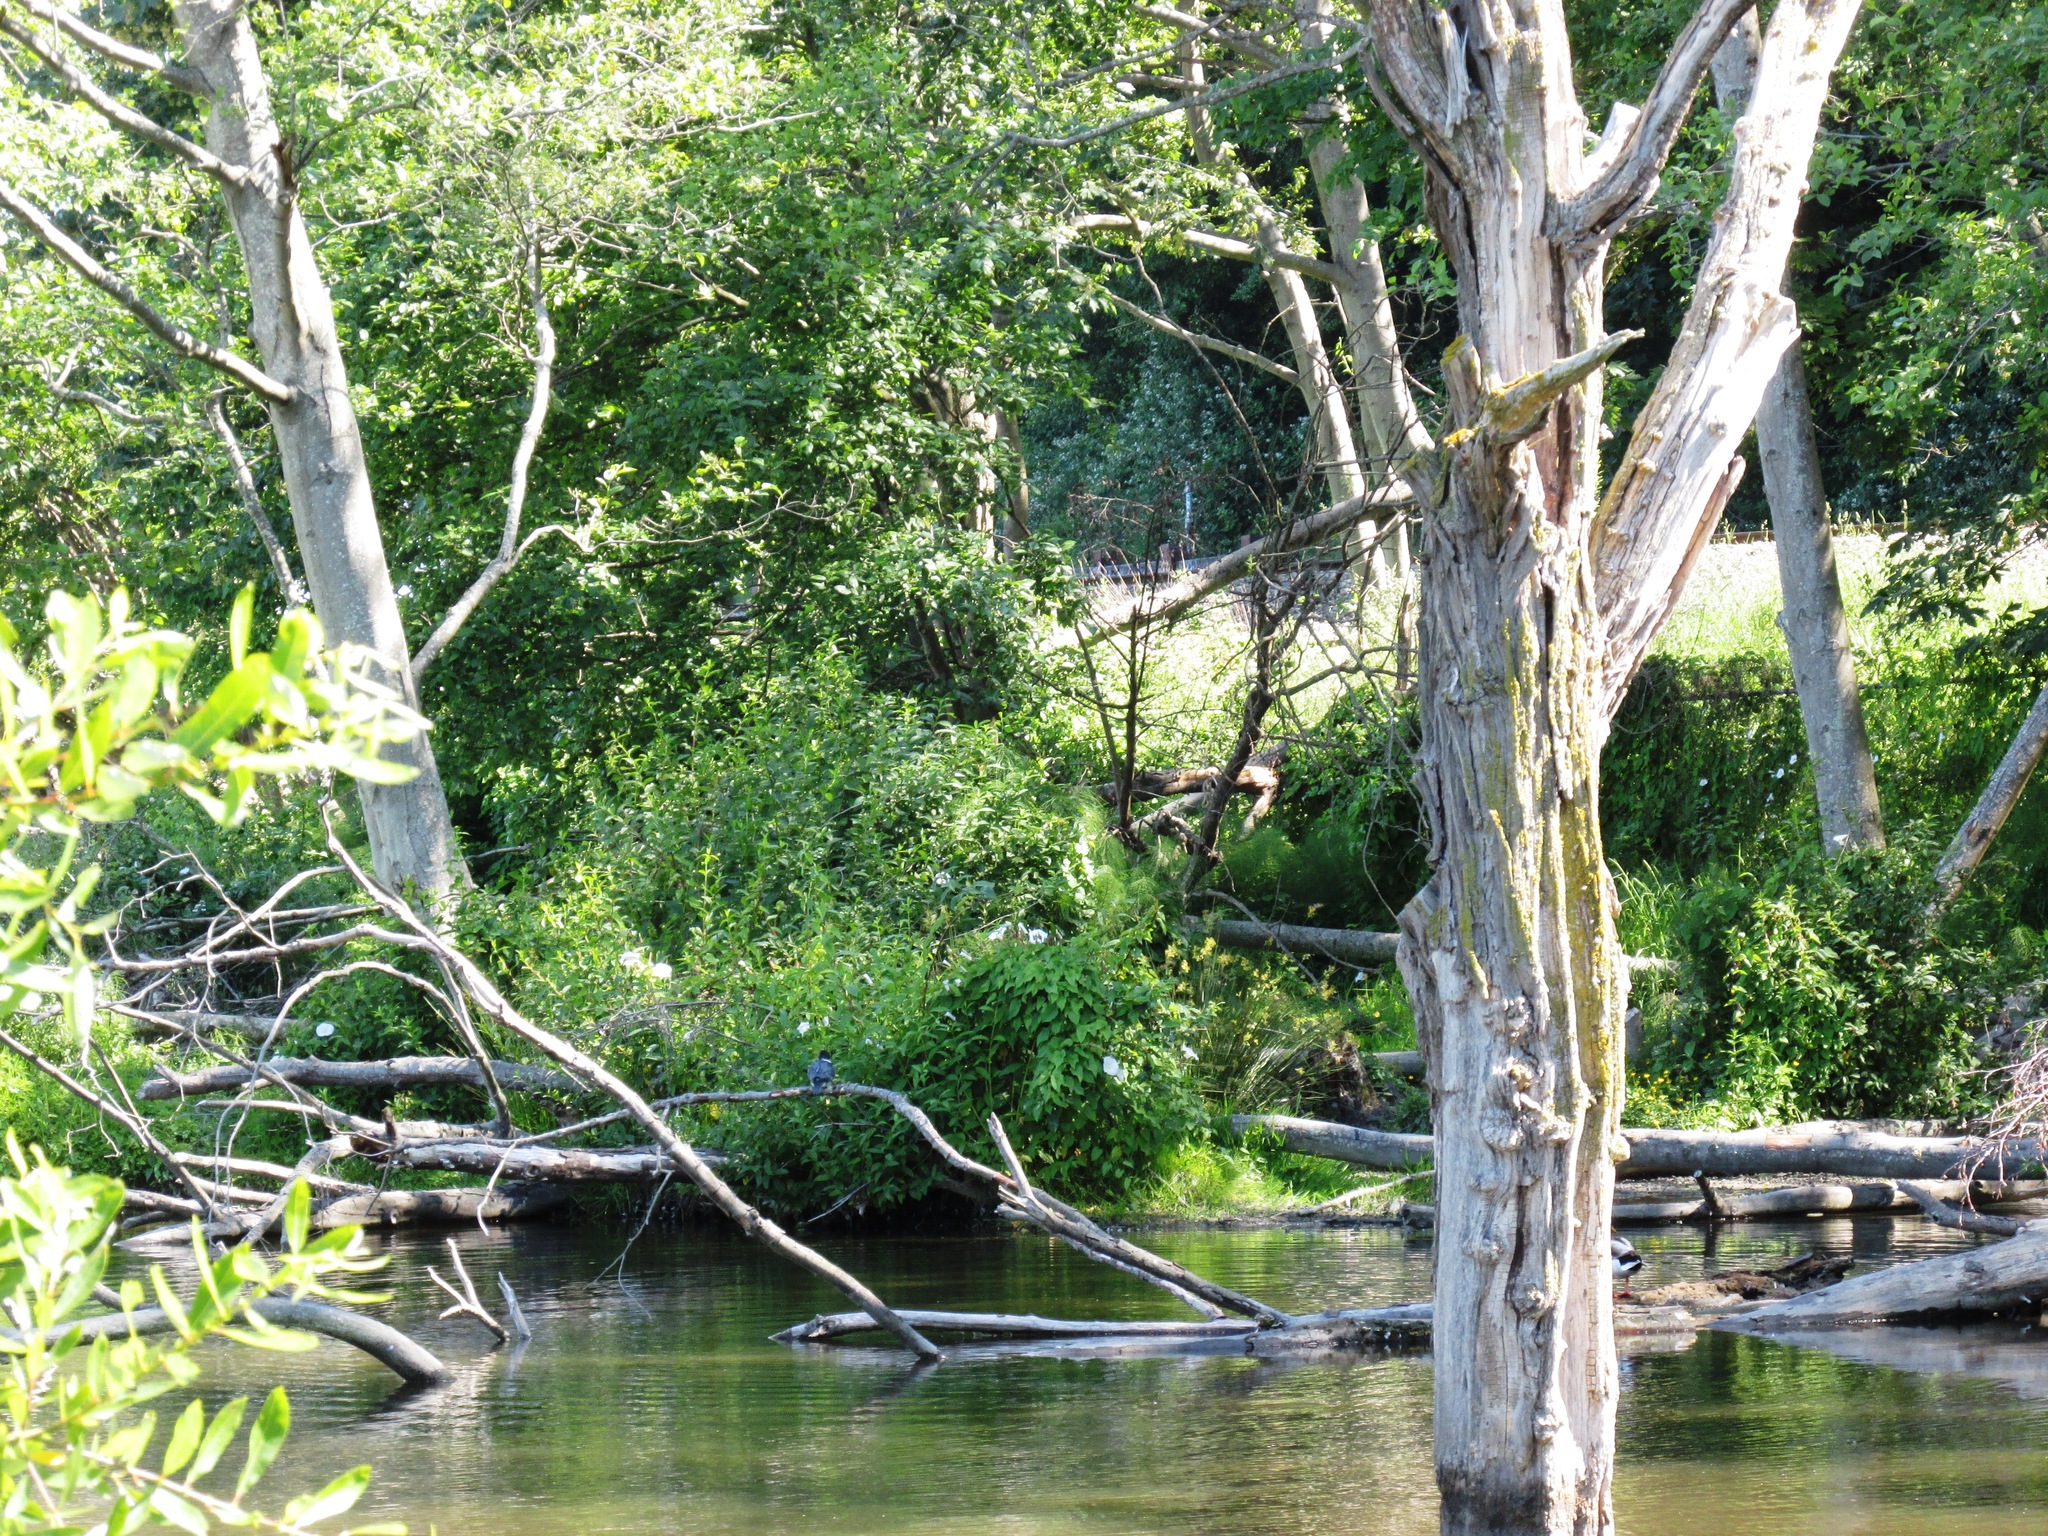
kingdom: Animalia
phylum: Chordata
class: Aves
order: Coraciiformes
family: Alcedinidae
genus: Megaceryle
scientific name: Megaceryle alcyon
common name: Belted kingfisher
